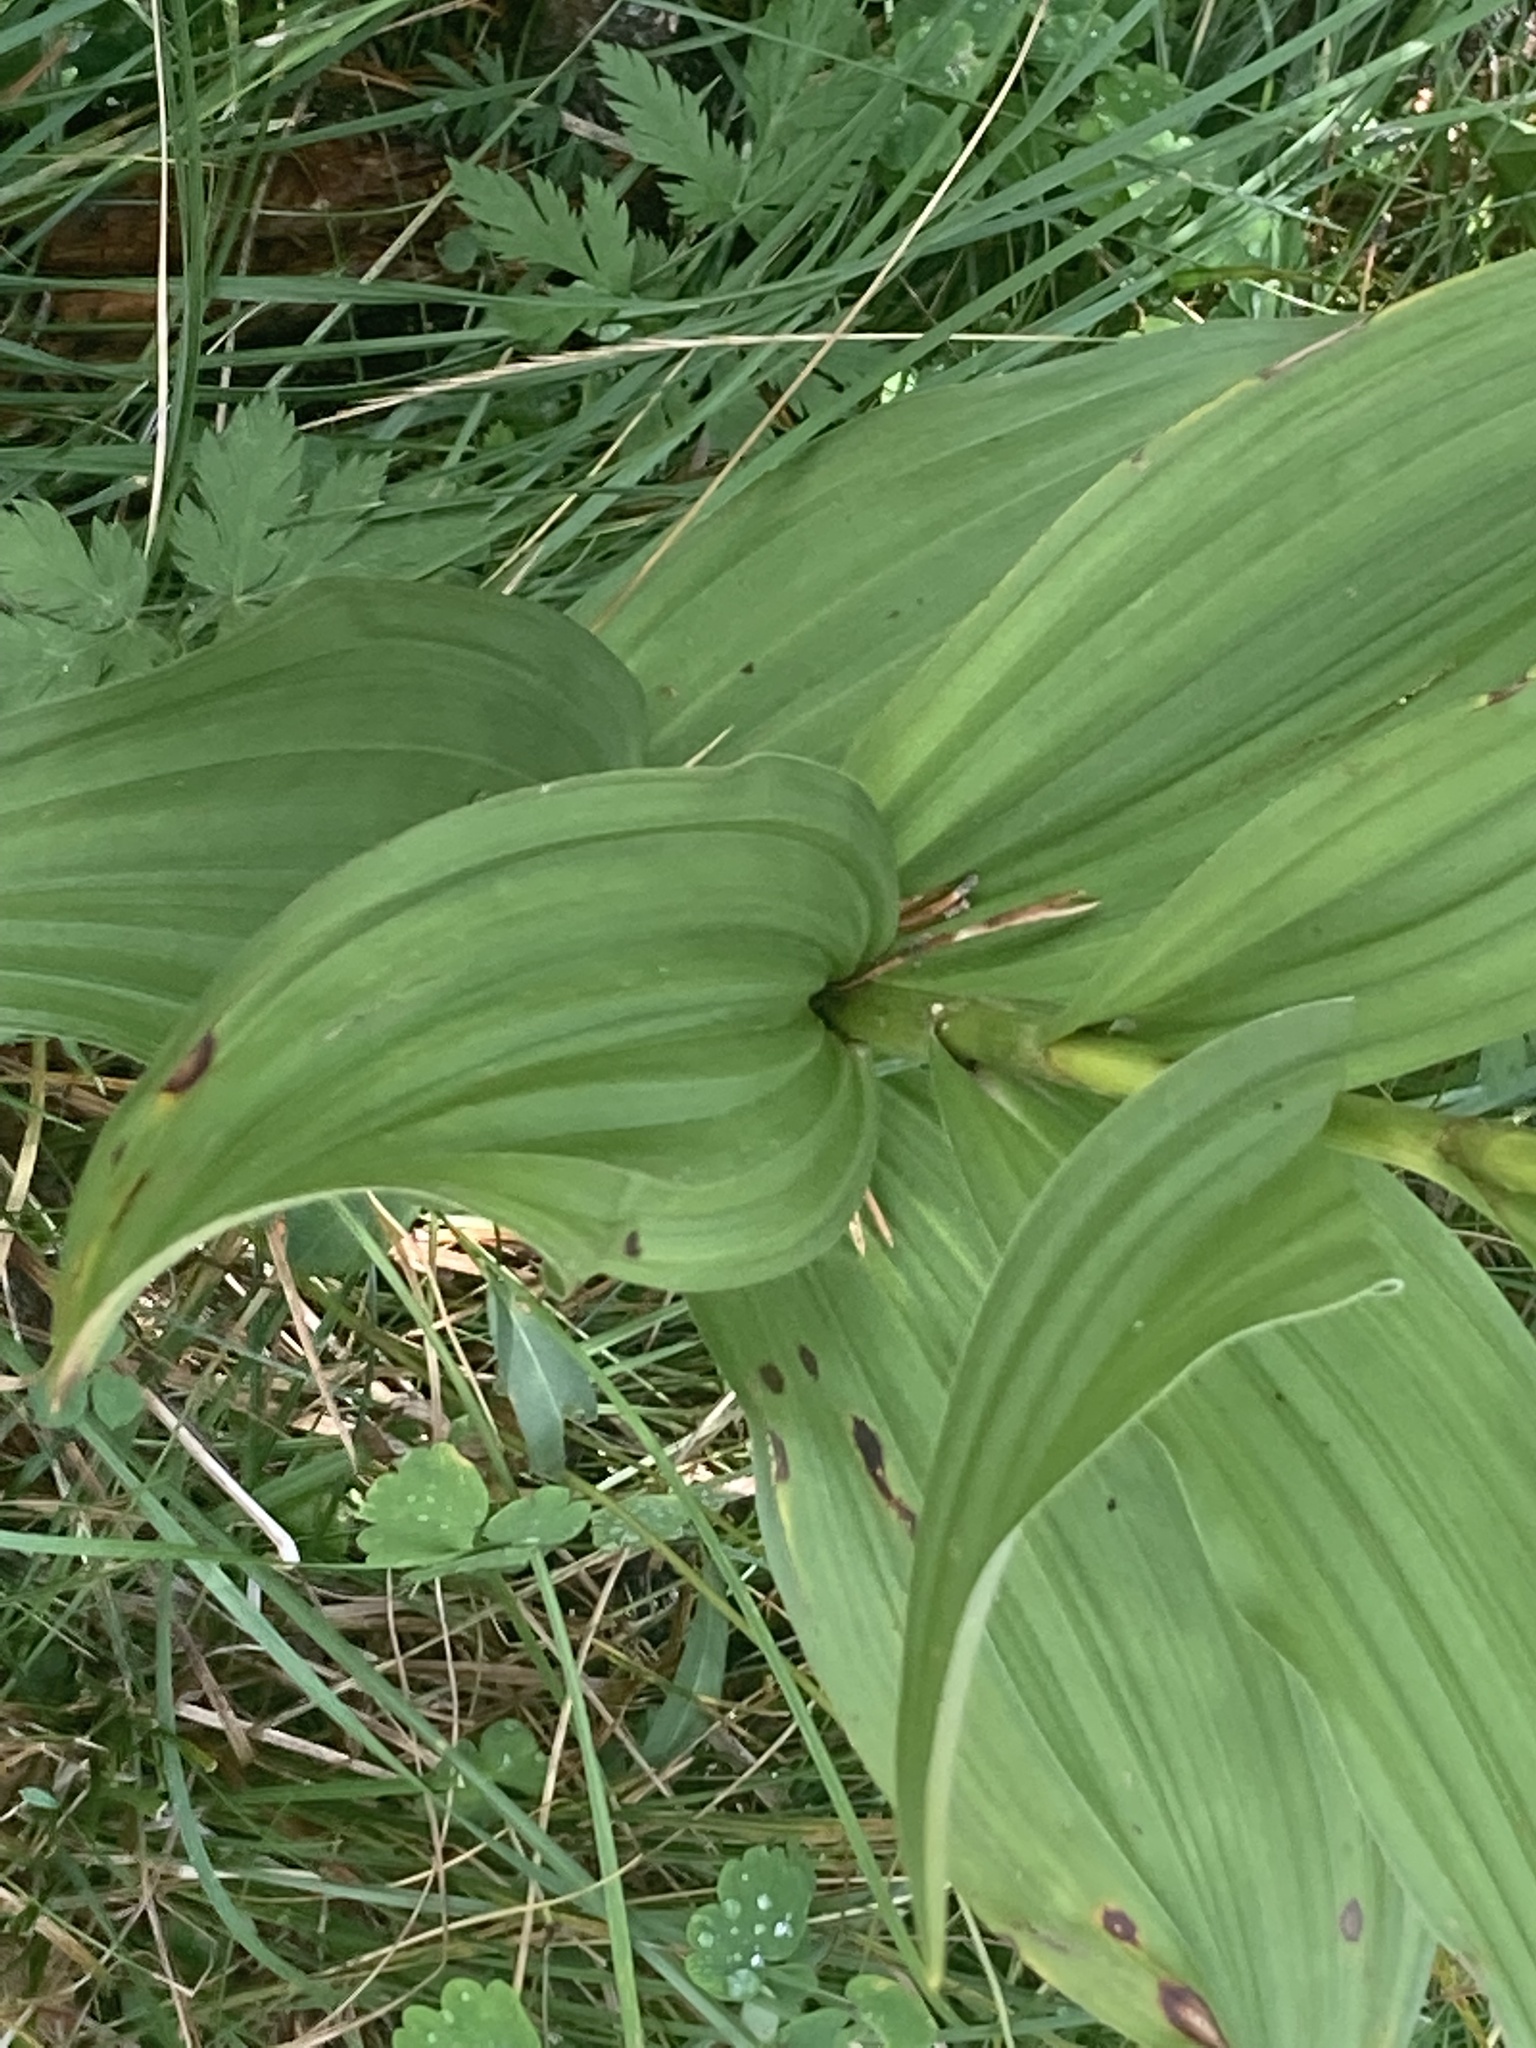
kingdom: Plantae
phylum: Tracheophyta
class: Liliopsida
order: Liliales
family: Melanthiaceae
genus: Veratrum
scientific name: Veratrum album
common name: White veratrum
